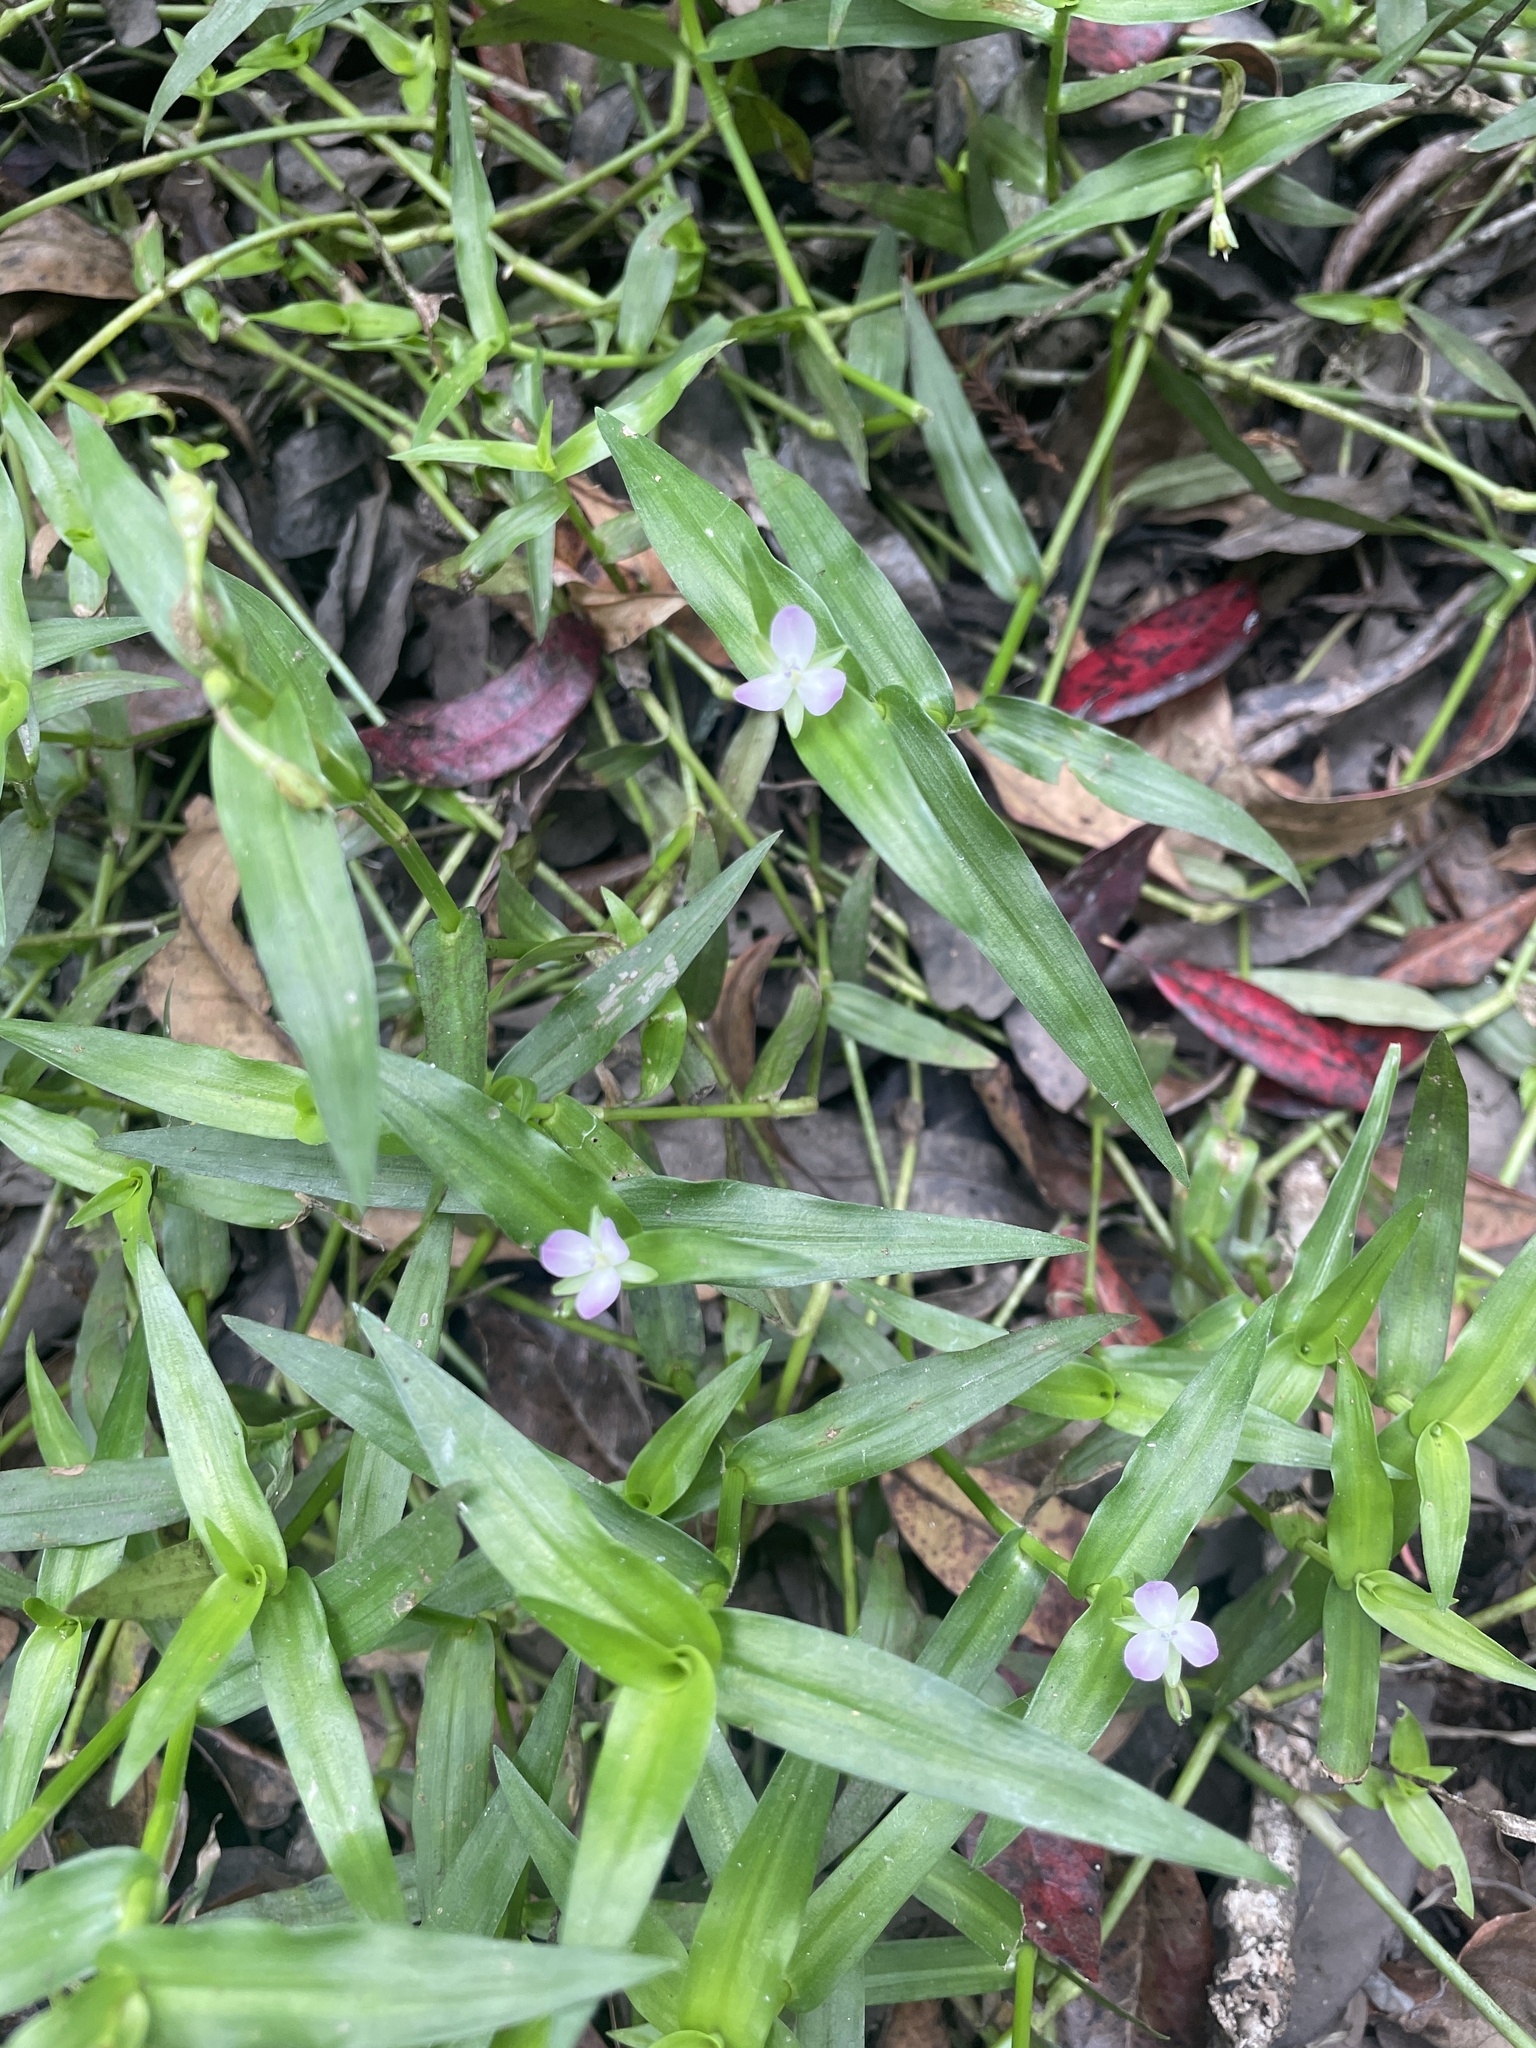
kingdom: Plantae
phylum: Tracheophyta
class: Liliopsida
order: Commelinales
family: Commelinaceae
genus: Murdannia
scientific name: Murdannia keisak
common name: Wartremoving herb
